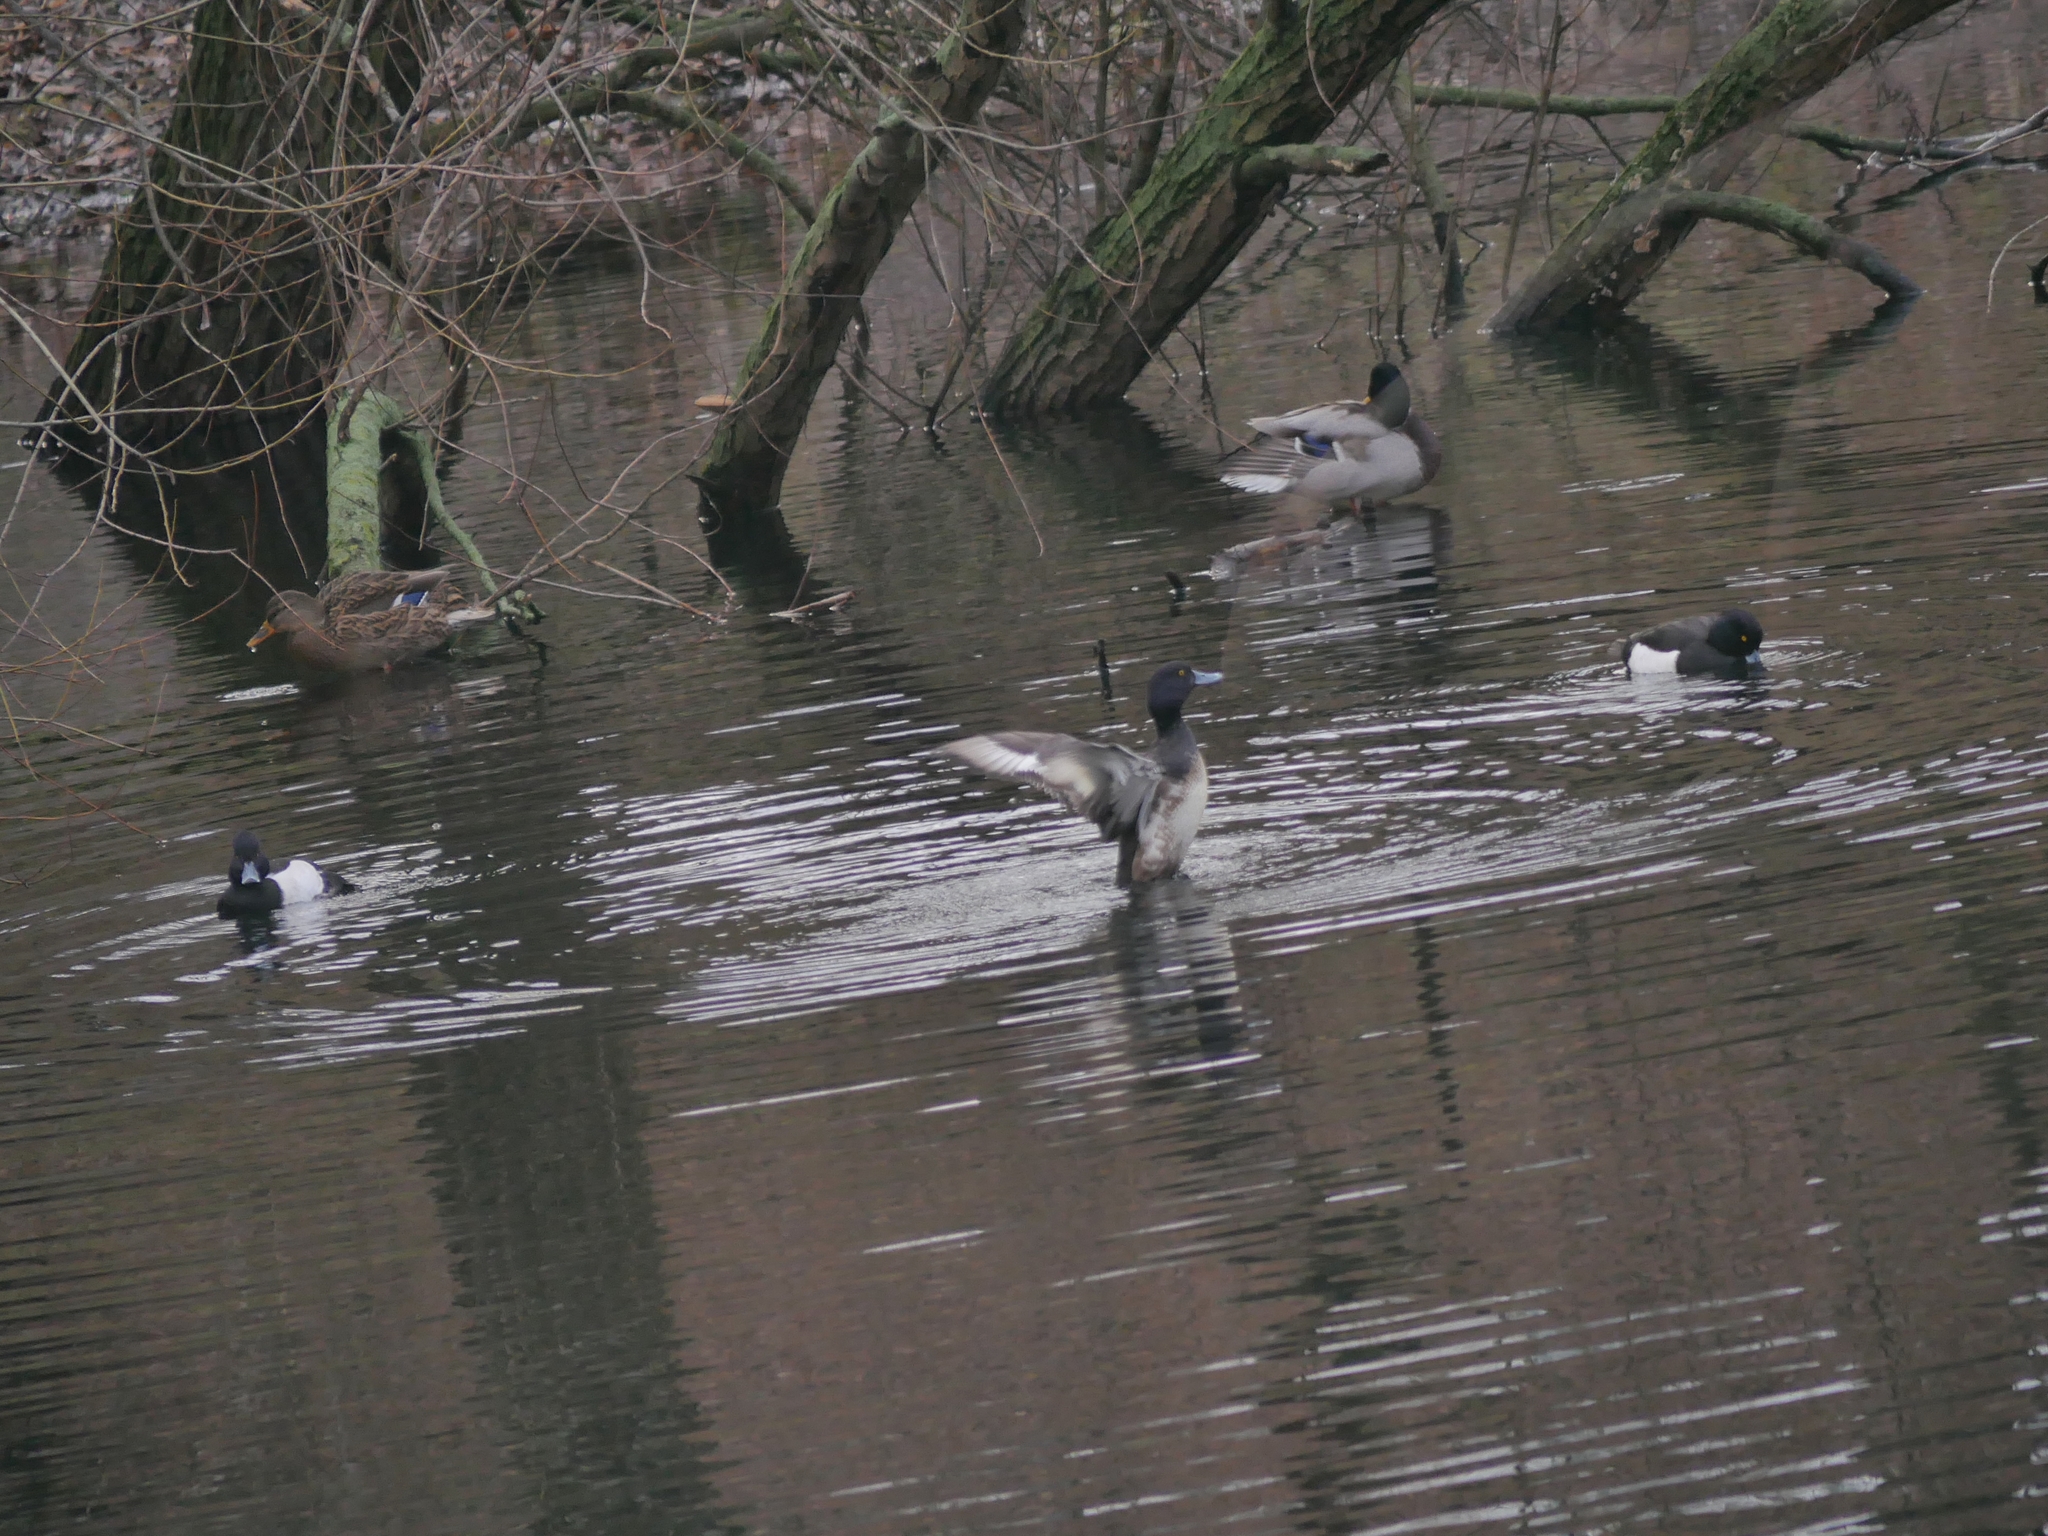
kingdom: Animalia
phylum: Chordata
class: Aves
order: Anseriformes
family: Anatidae
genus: Aythya
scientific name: Aythya fuligula
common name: Tufted duck
